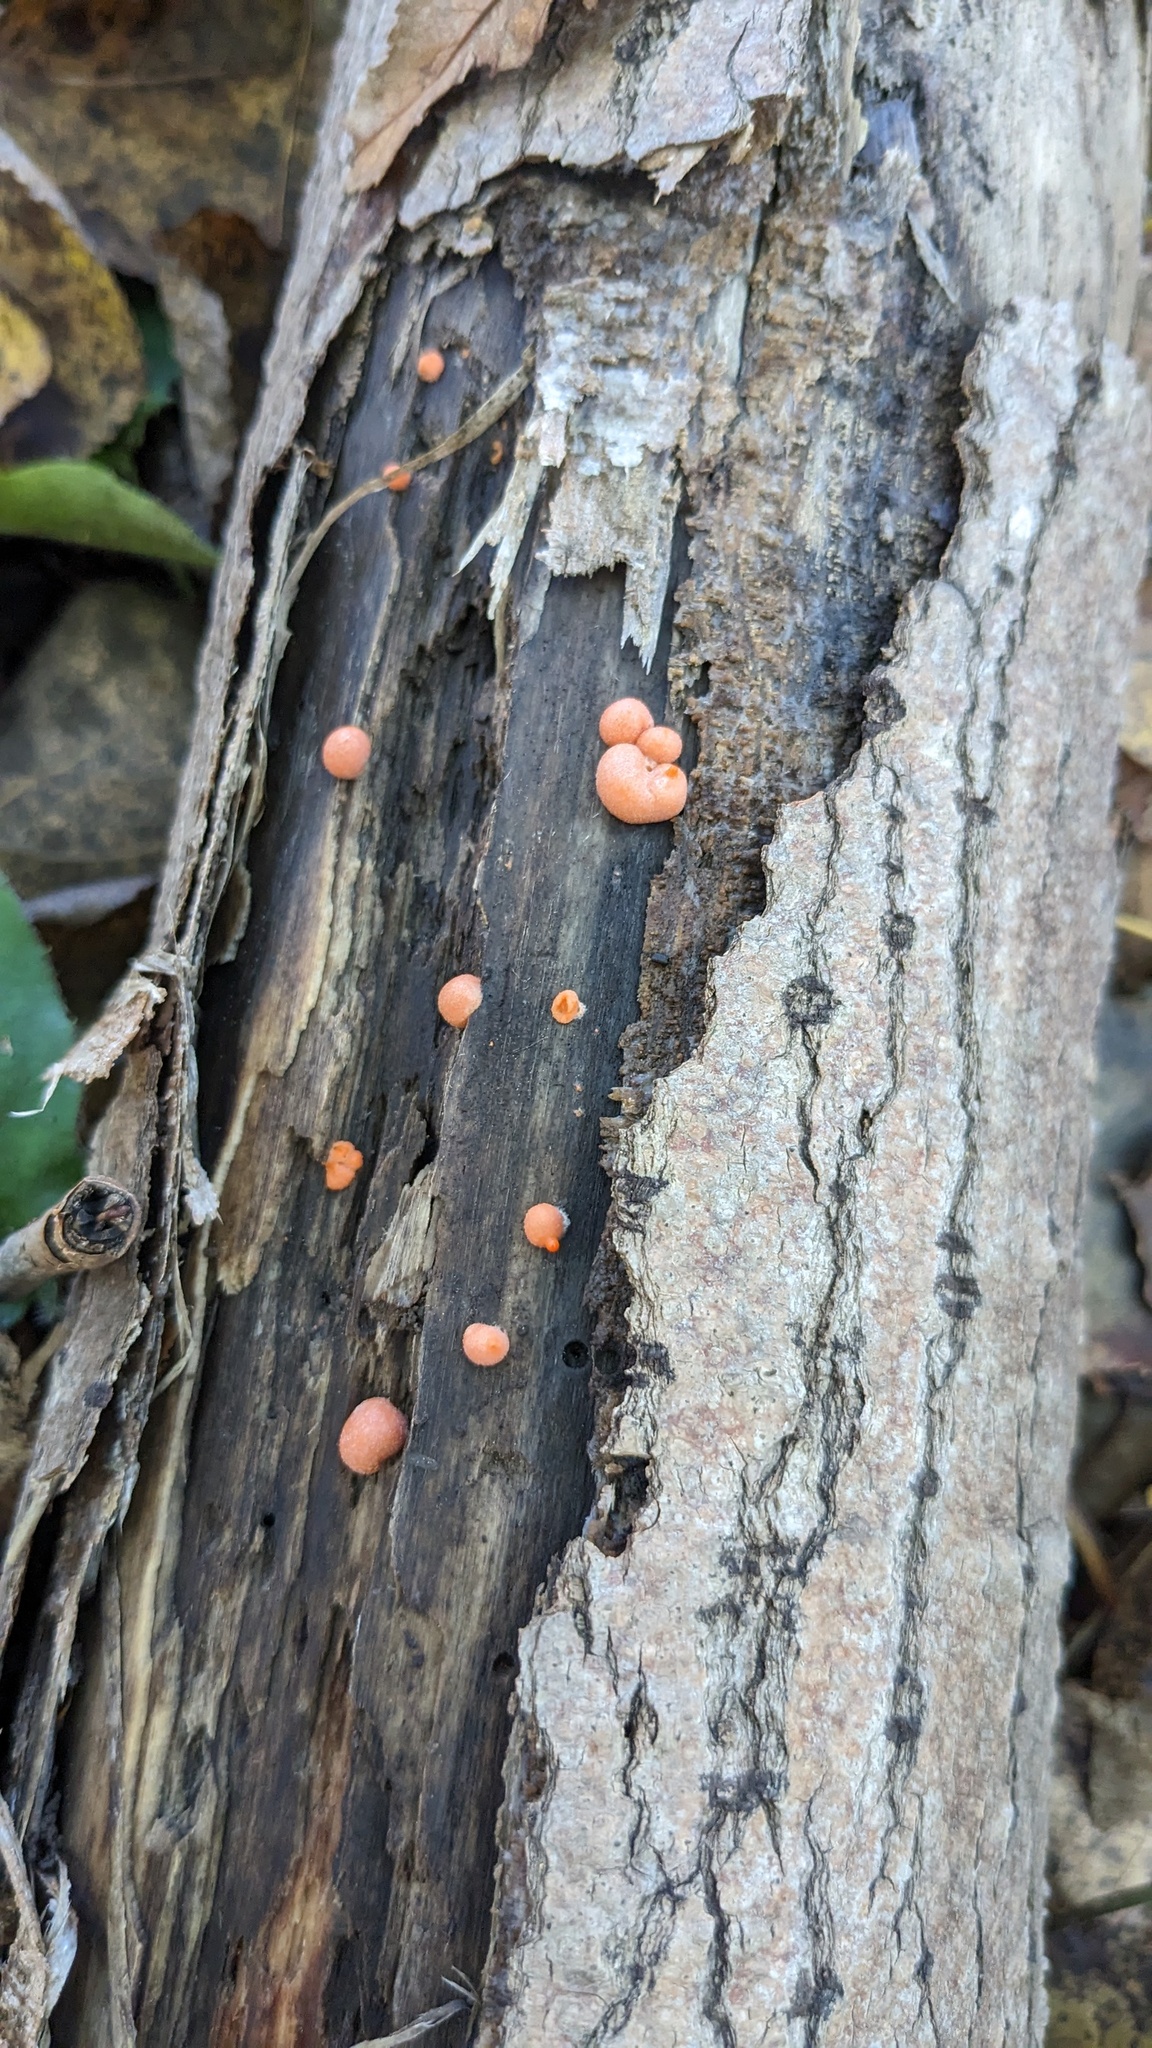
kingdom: Protozoa
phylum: Mycetozoa
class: Myxomycetes
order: Cribrariales
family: Tubiferaceae
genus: Lycogala
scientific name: Lycogala epidendrum
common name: Wolf's milk
